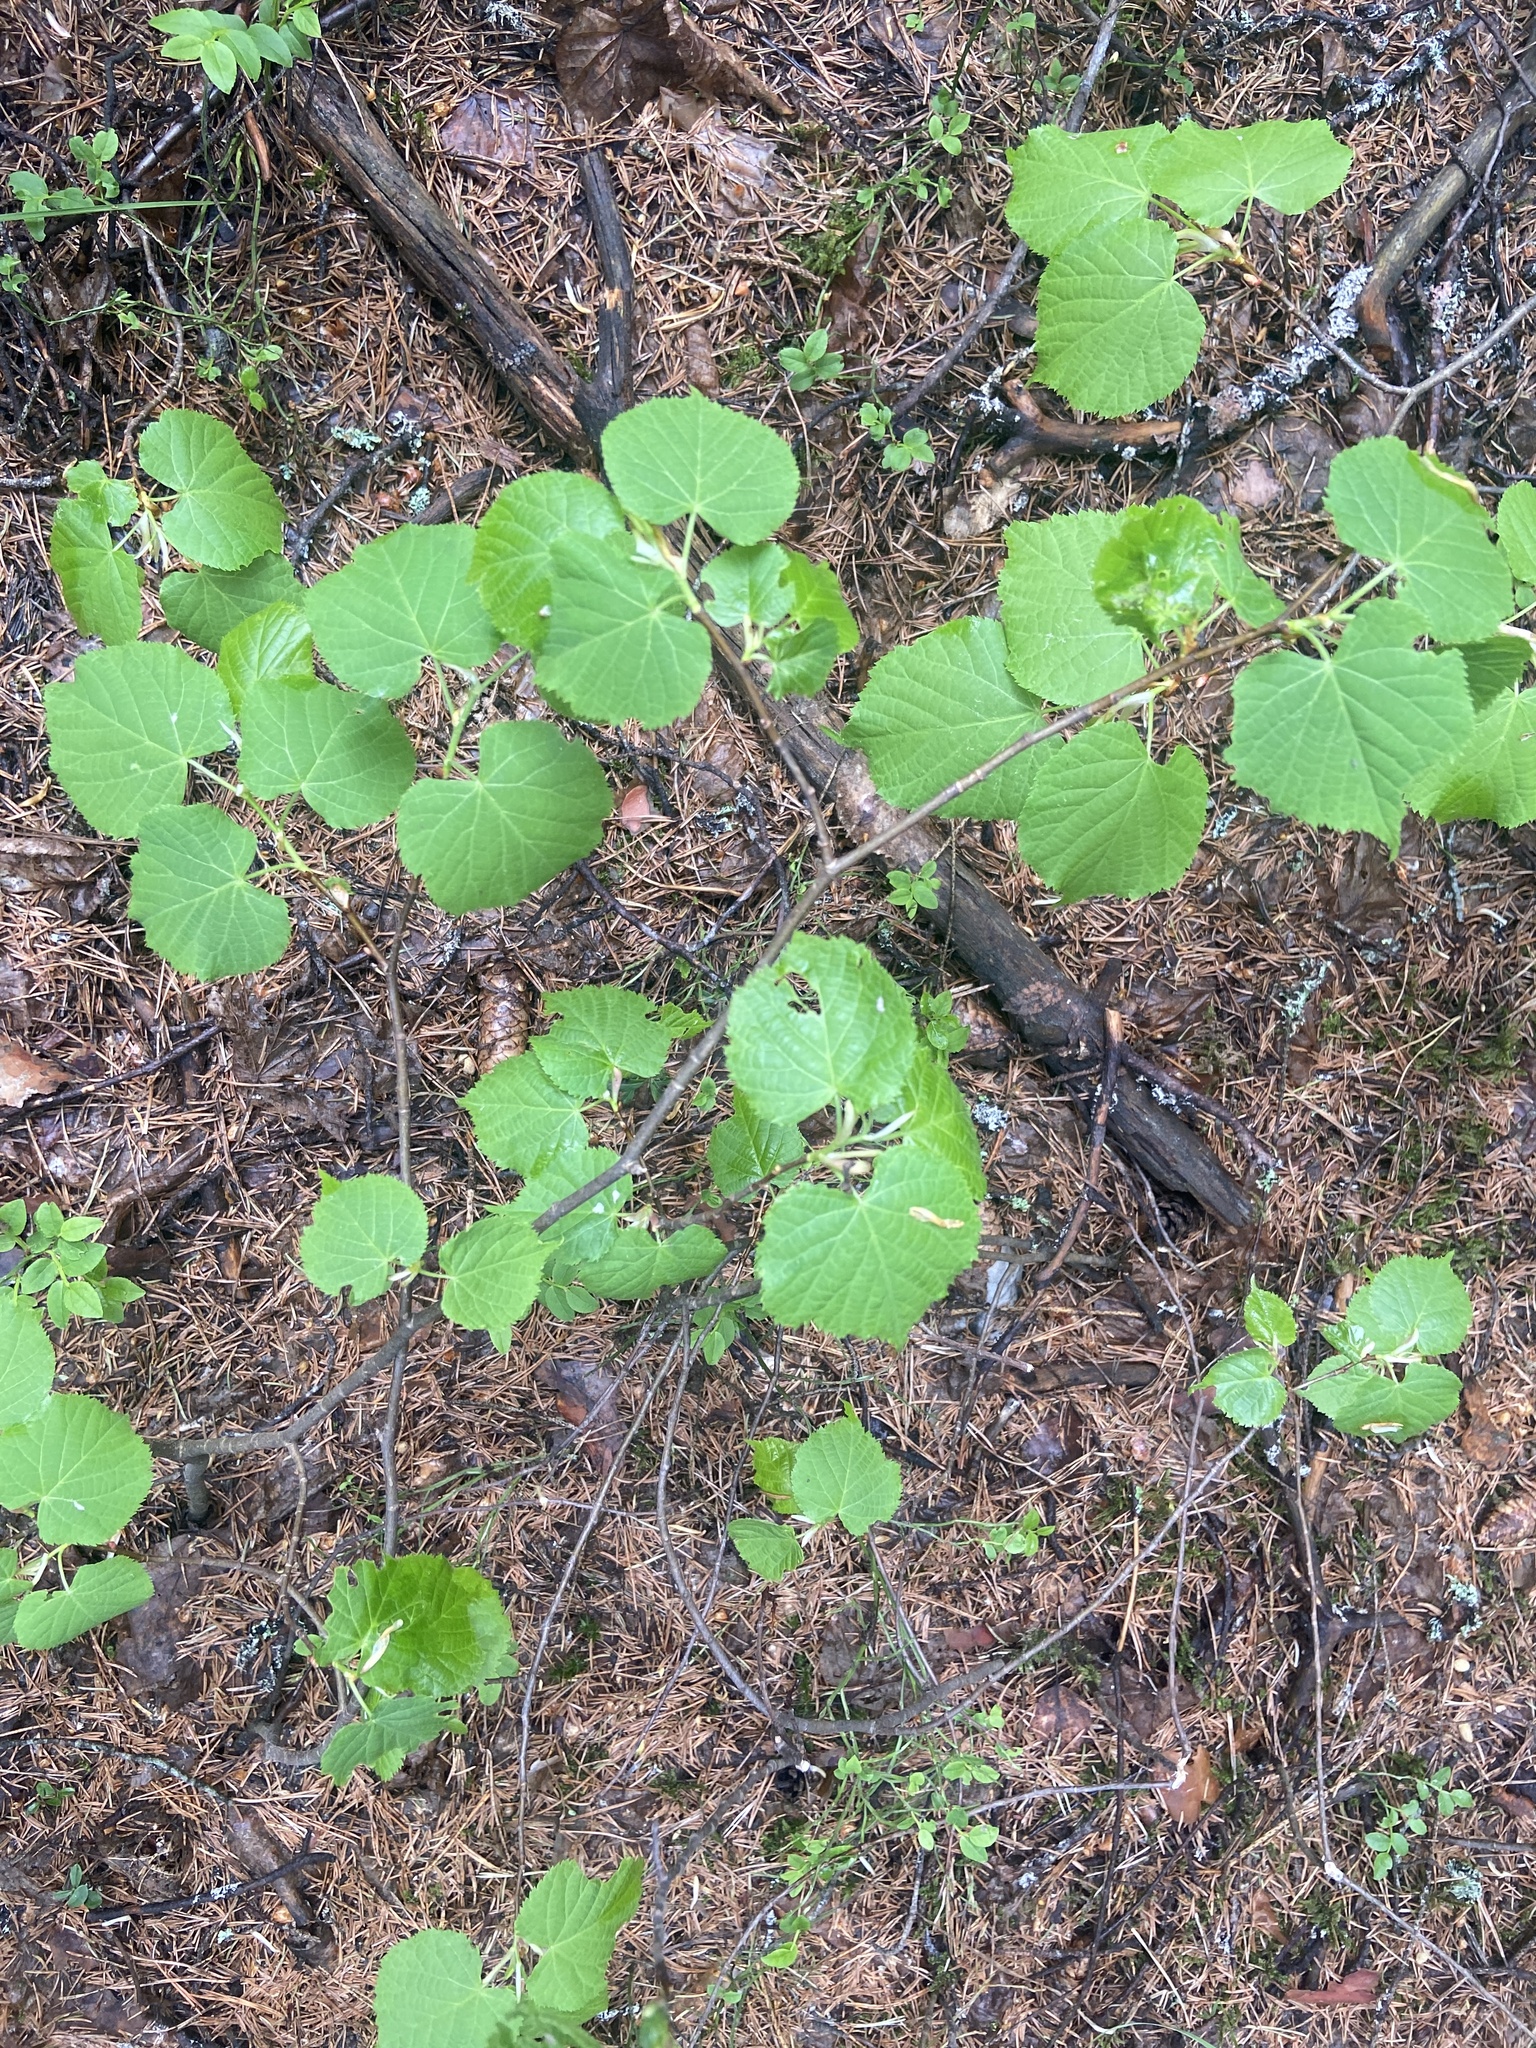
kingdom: Plantae
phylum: Tracheophyta
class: Magnoliopsida
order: Malvales
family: Malvaceae
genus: Tilia
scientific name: Tilia cordata
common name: Small-leaved lime
